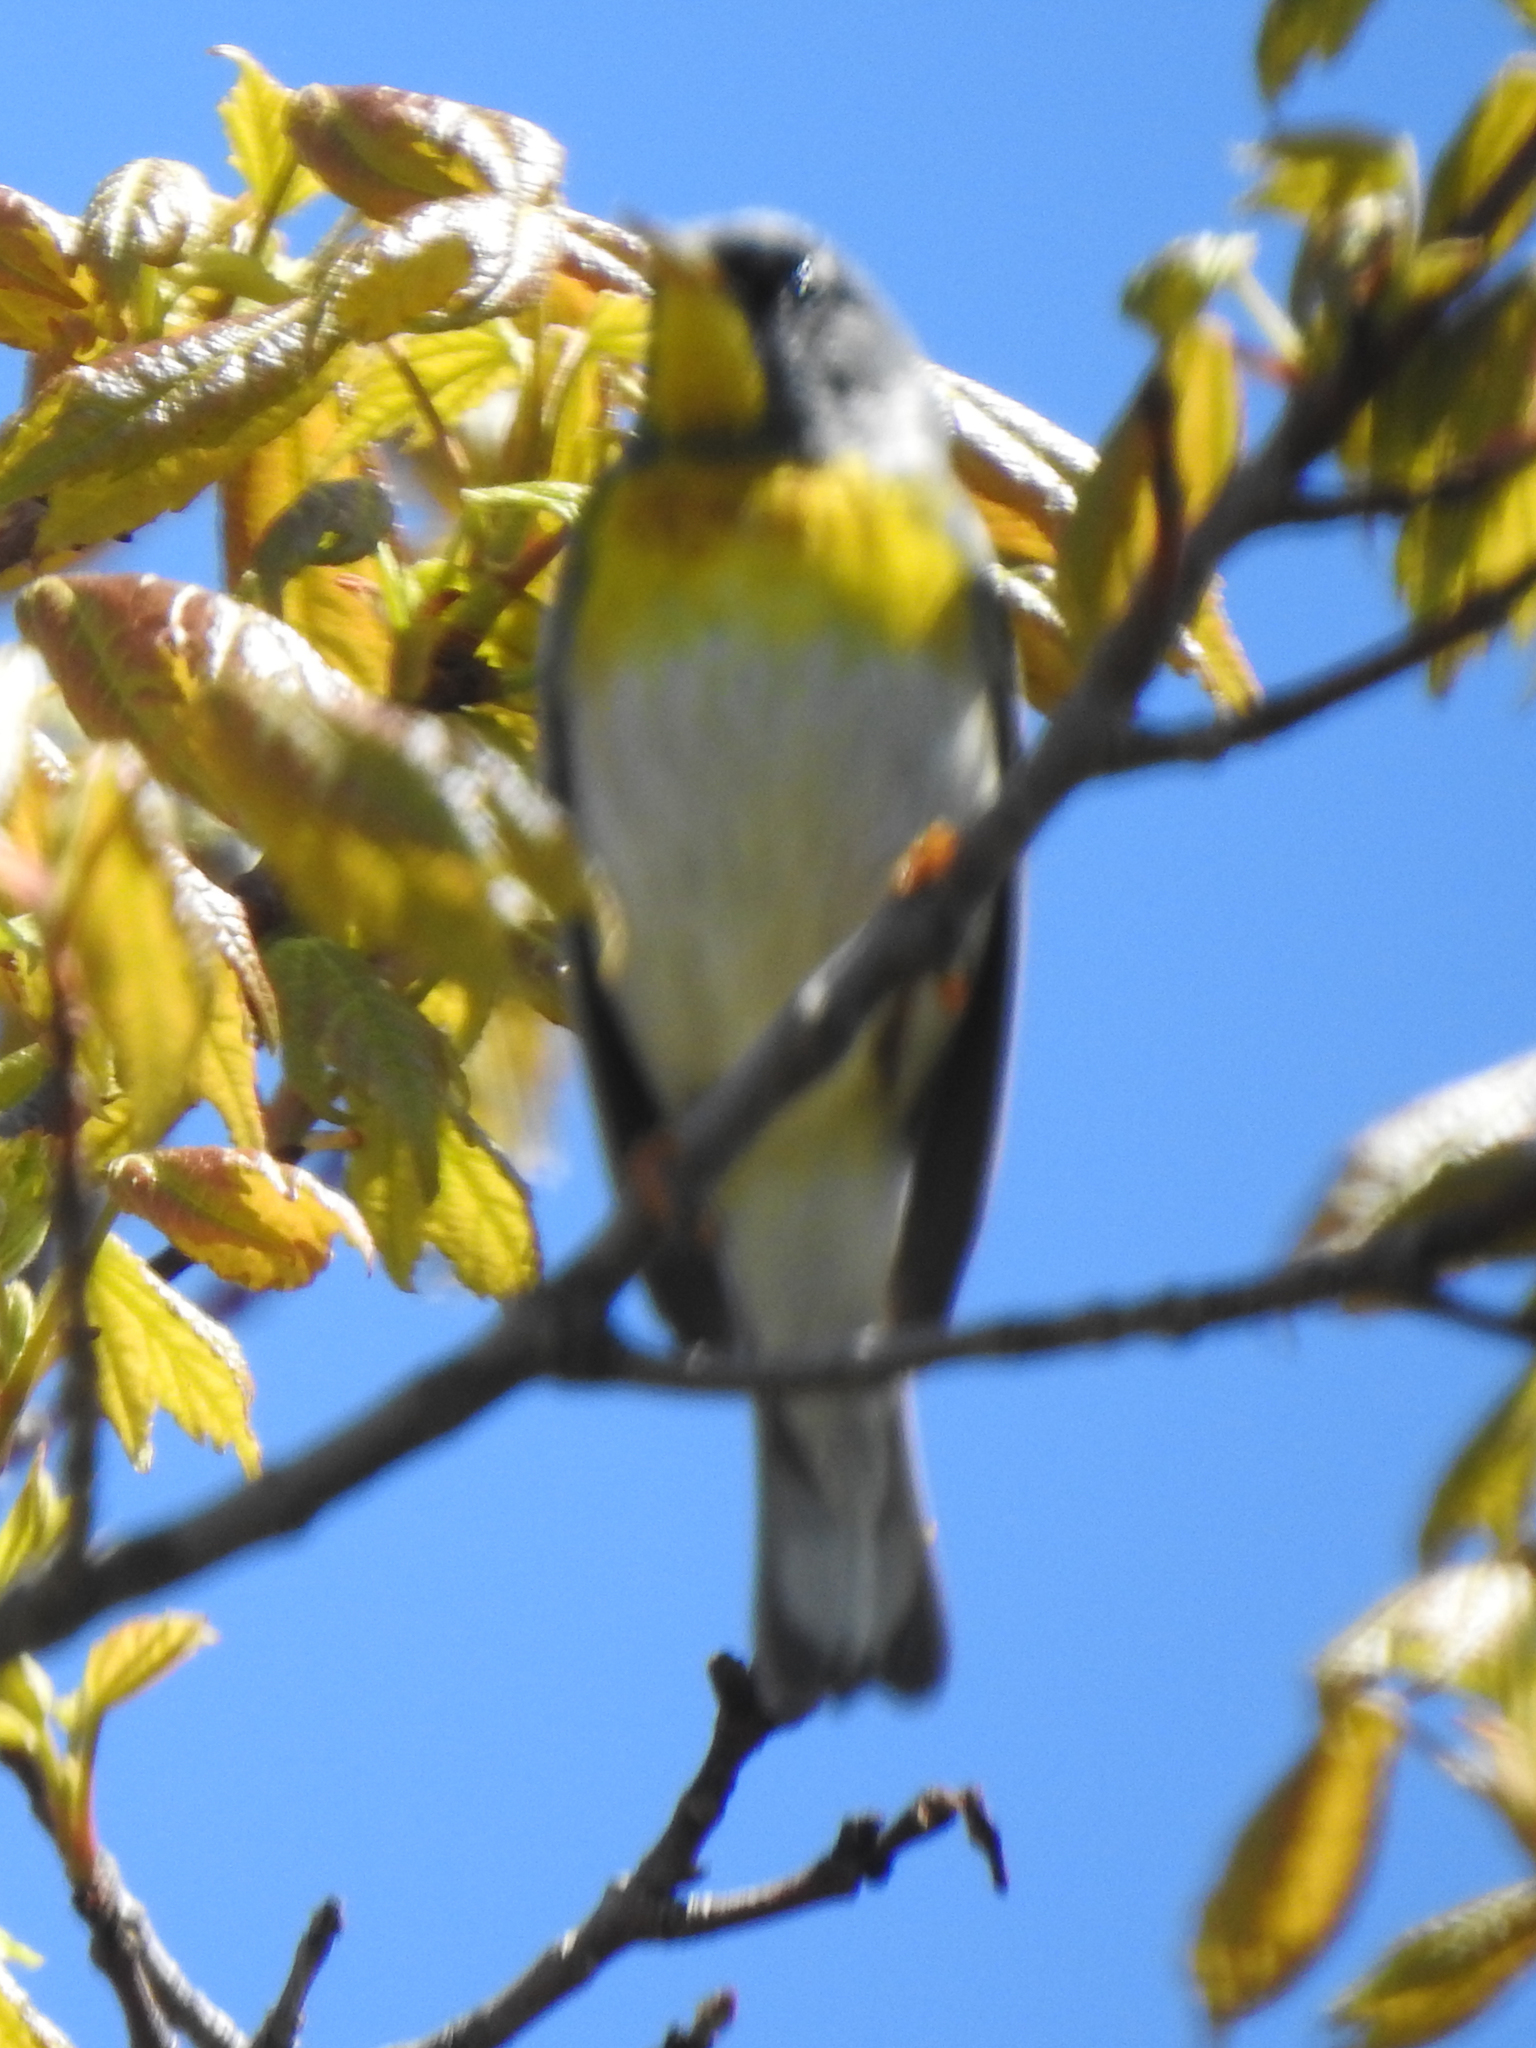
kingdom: Animalia
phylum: Chordata
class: Aves
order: Passeriformes
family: Parulidae
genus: Setophaga
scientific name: Setophaga americana
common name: Northern parula
